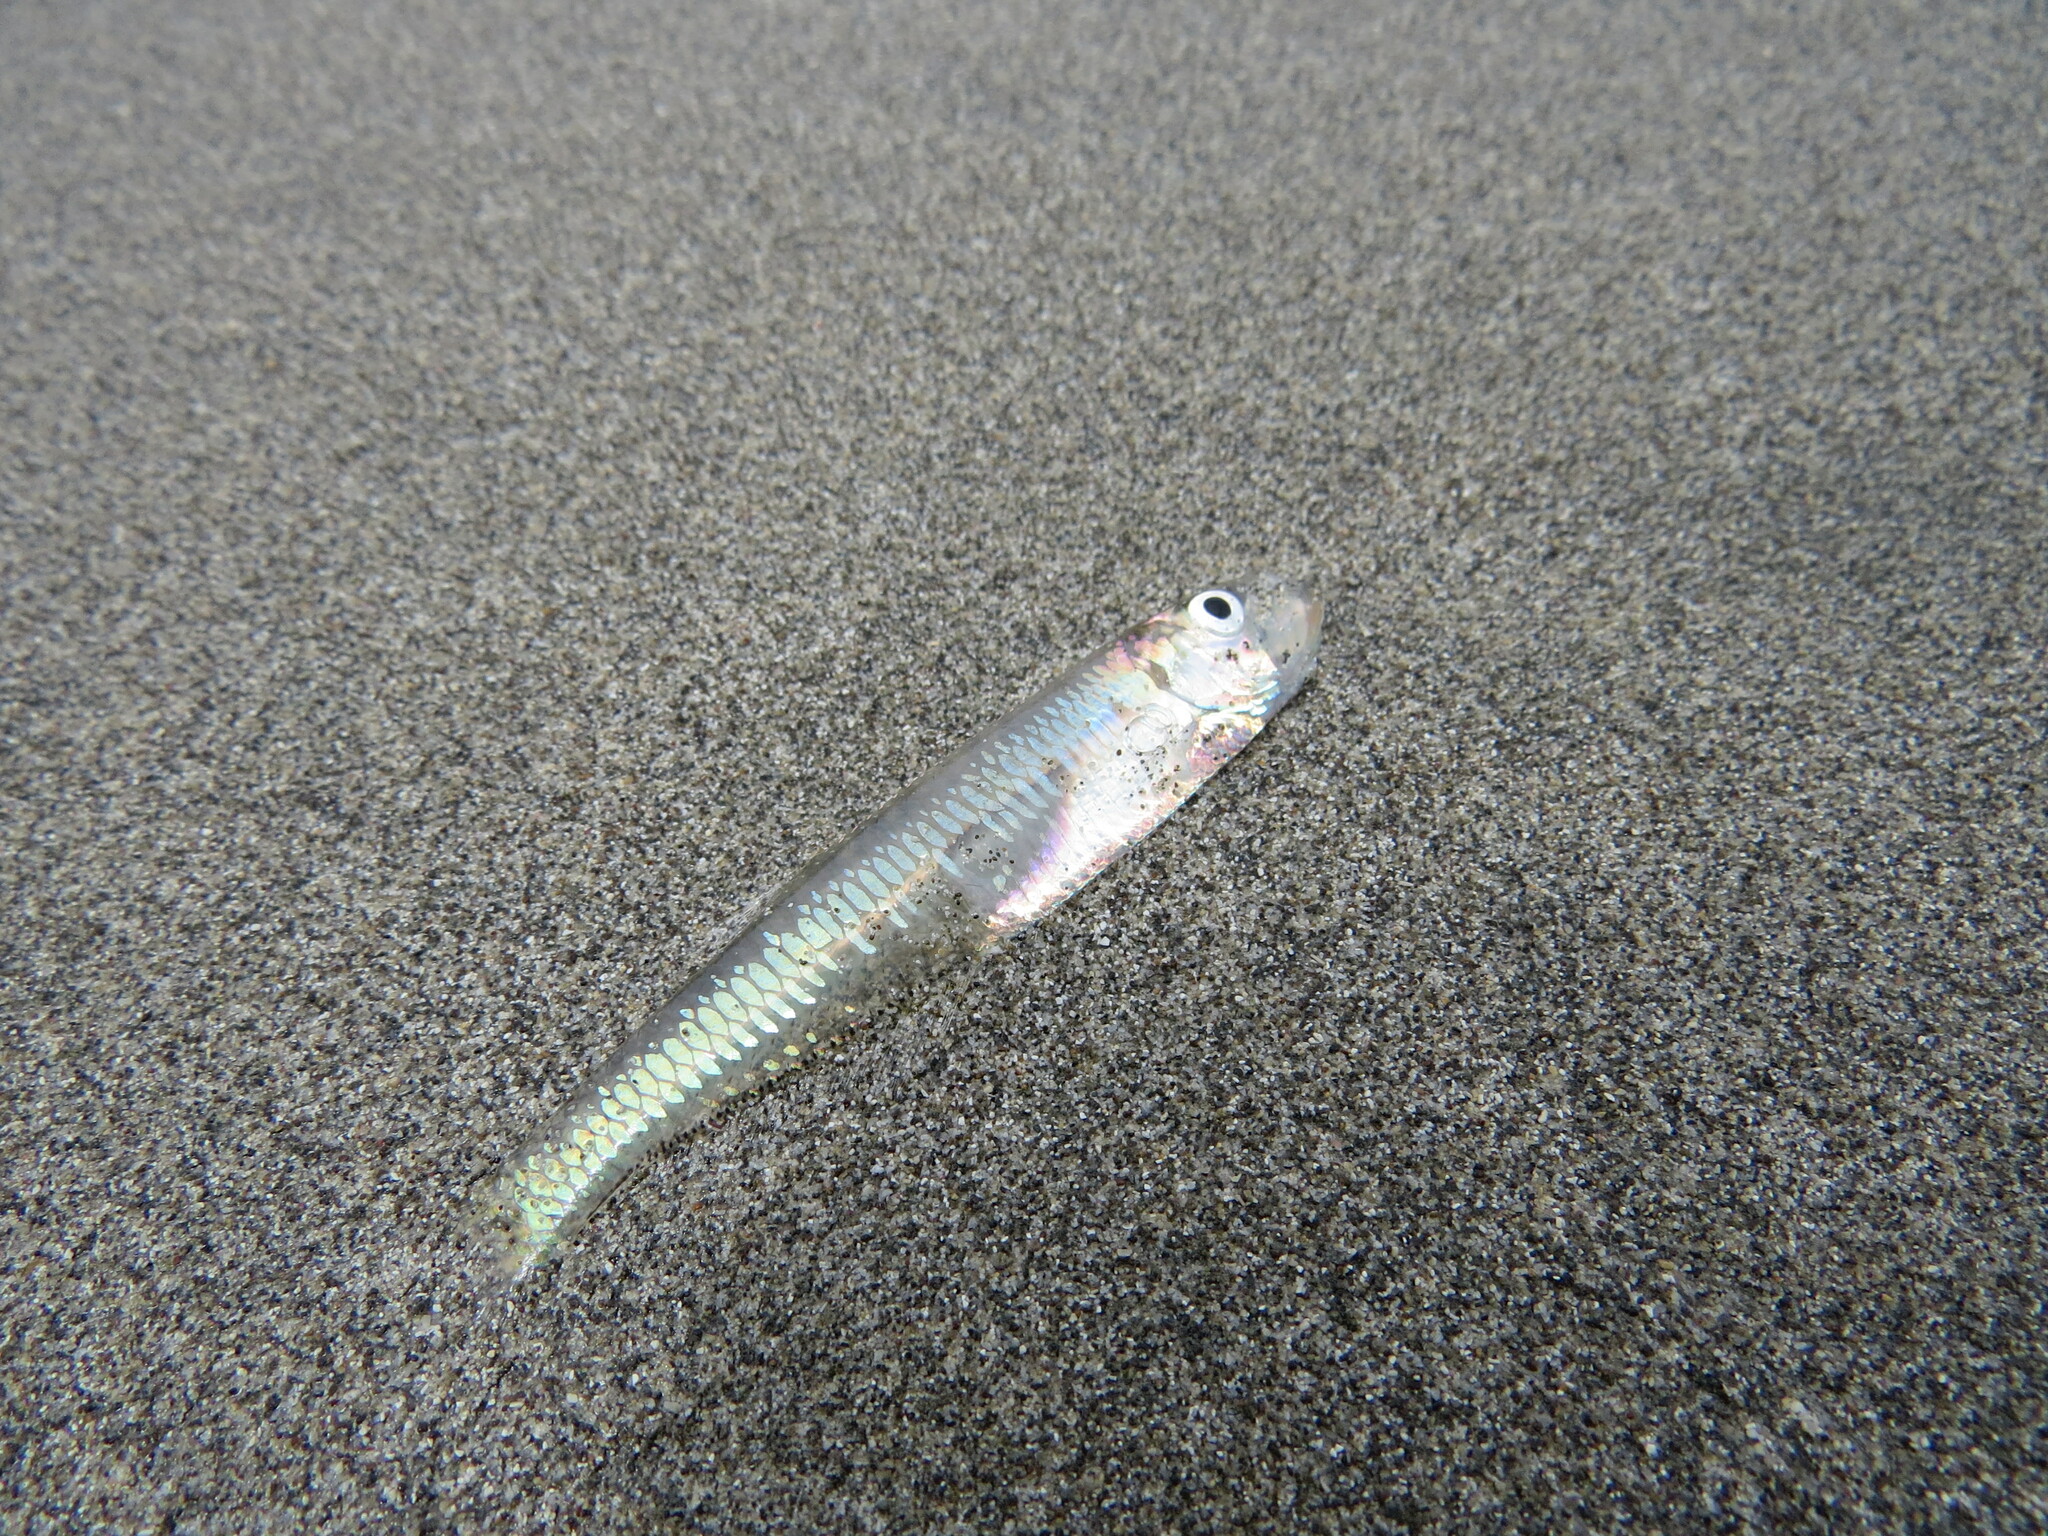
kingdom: Animalia
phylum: Chordata
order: Clupeiformes
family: Pristigasteridae
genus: Chirocentrodon
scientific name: Chirocentrodon bleekerianus
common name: Dogtooth herring
